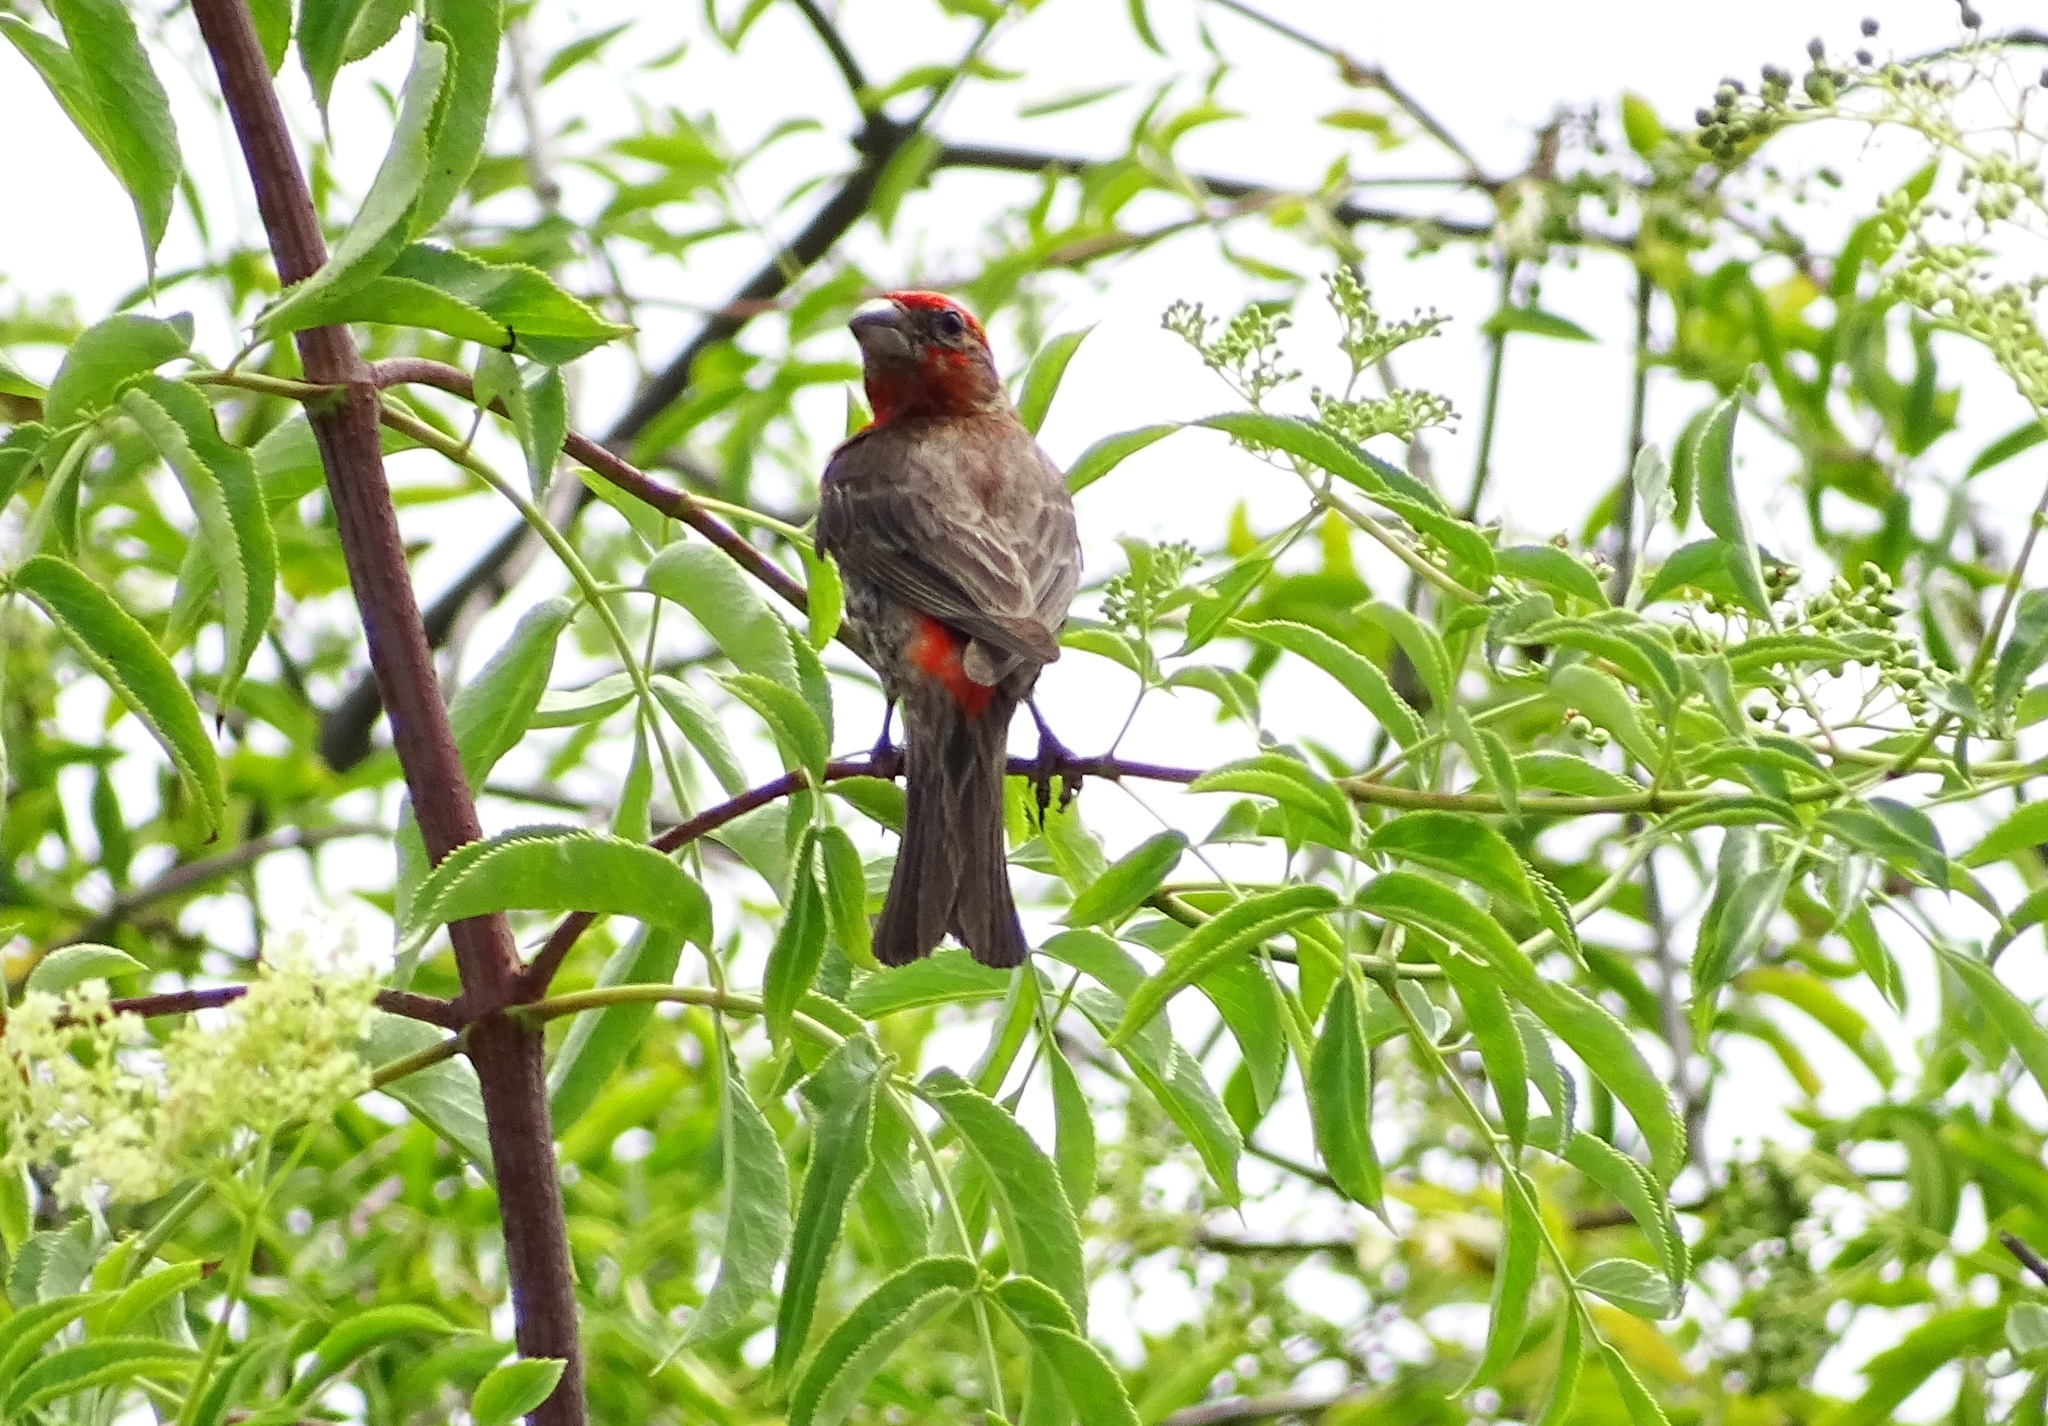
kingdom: Animalia
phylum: Chordata
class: Aves
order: Passeriformes
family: Fringillidae
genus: Haemorhous
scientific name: Haemorhous mexicanus
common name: House finch
